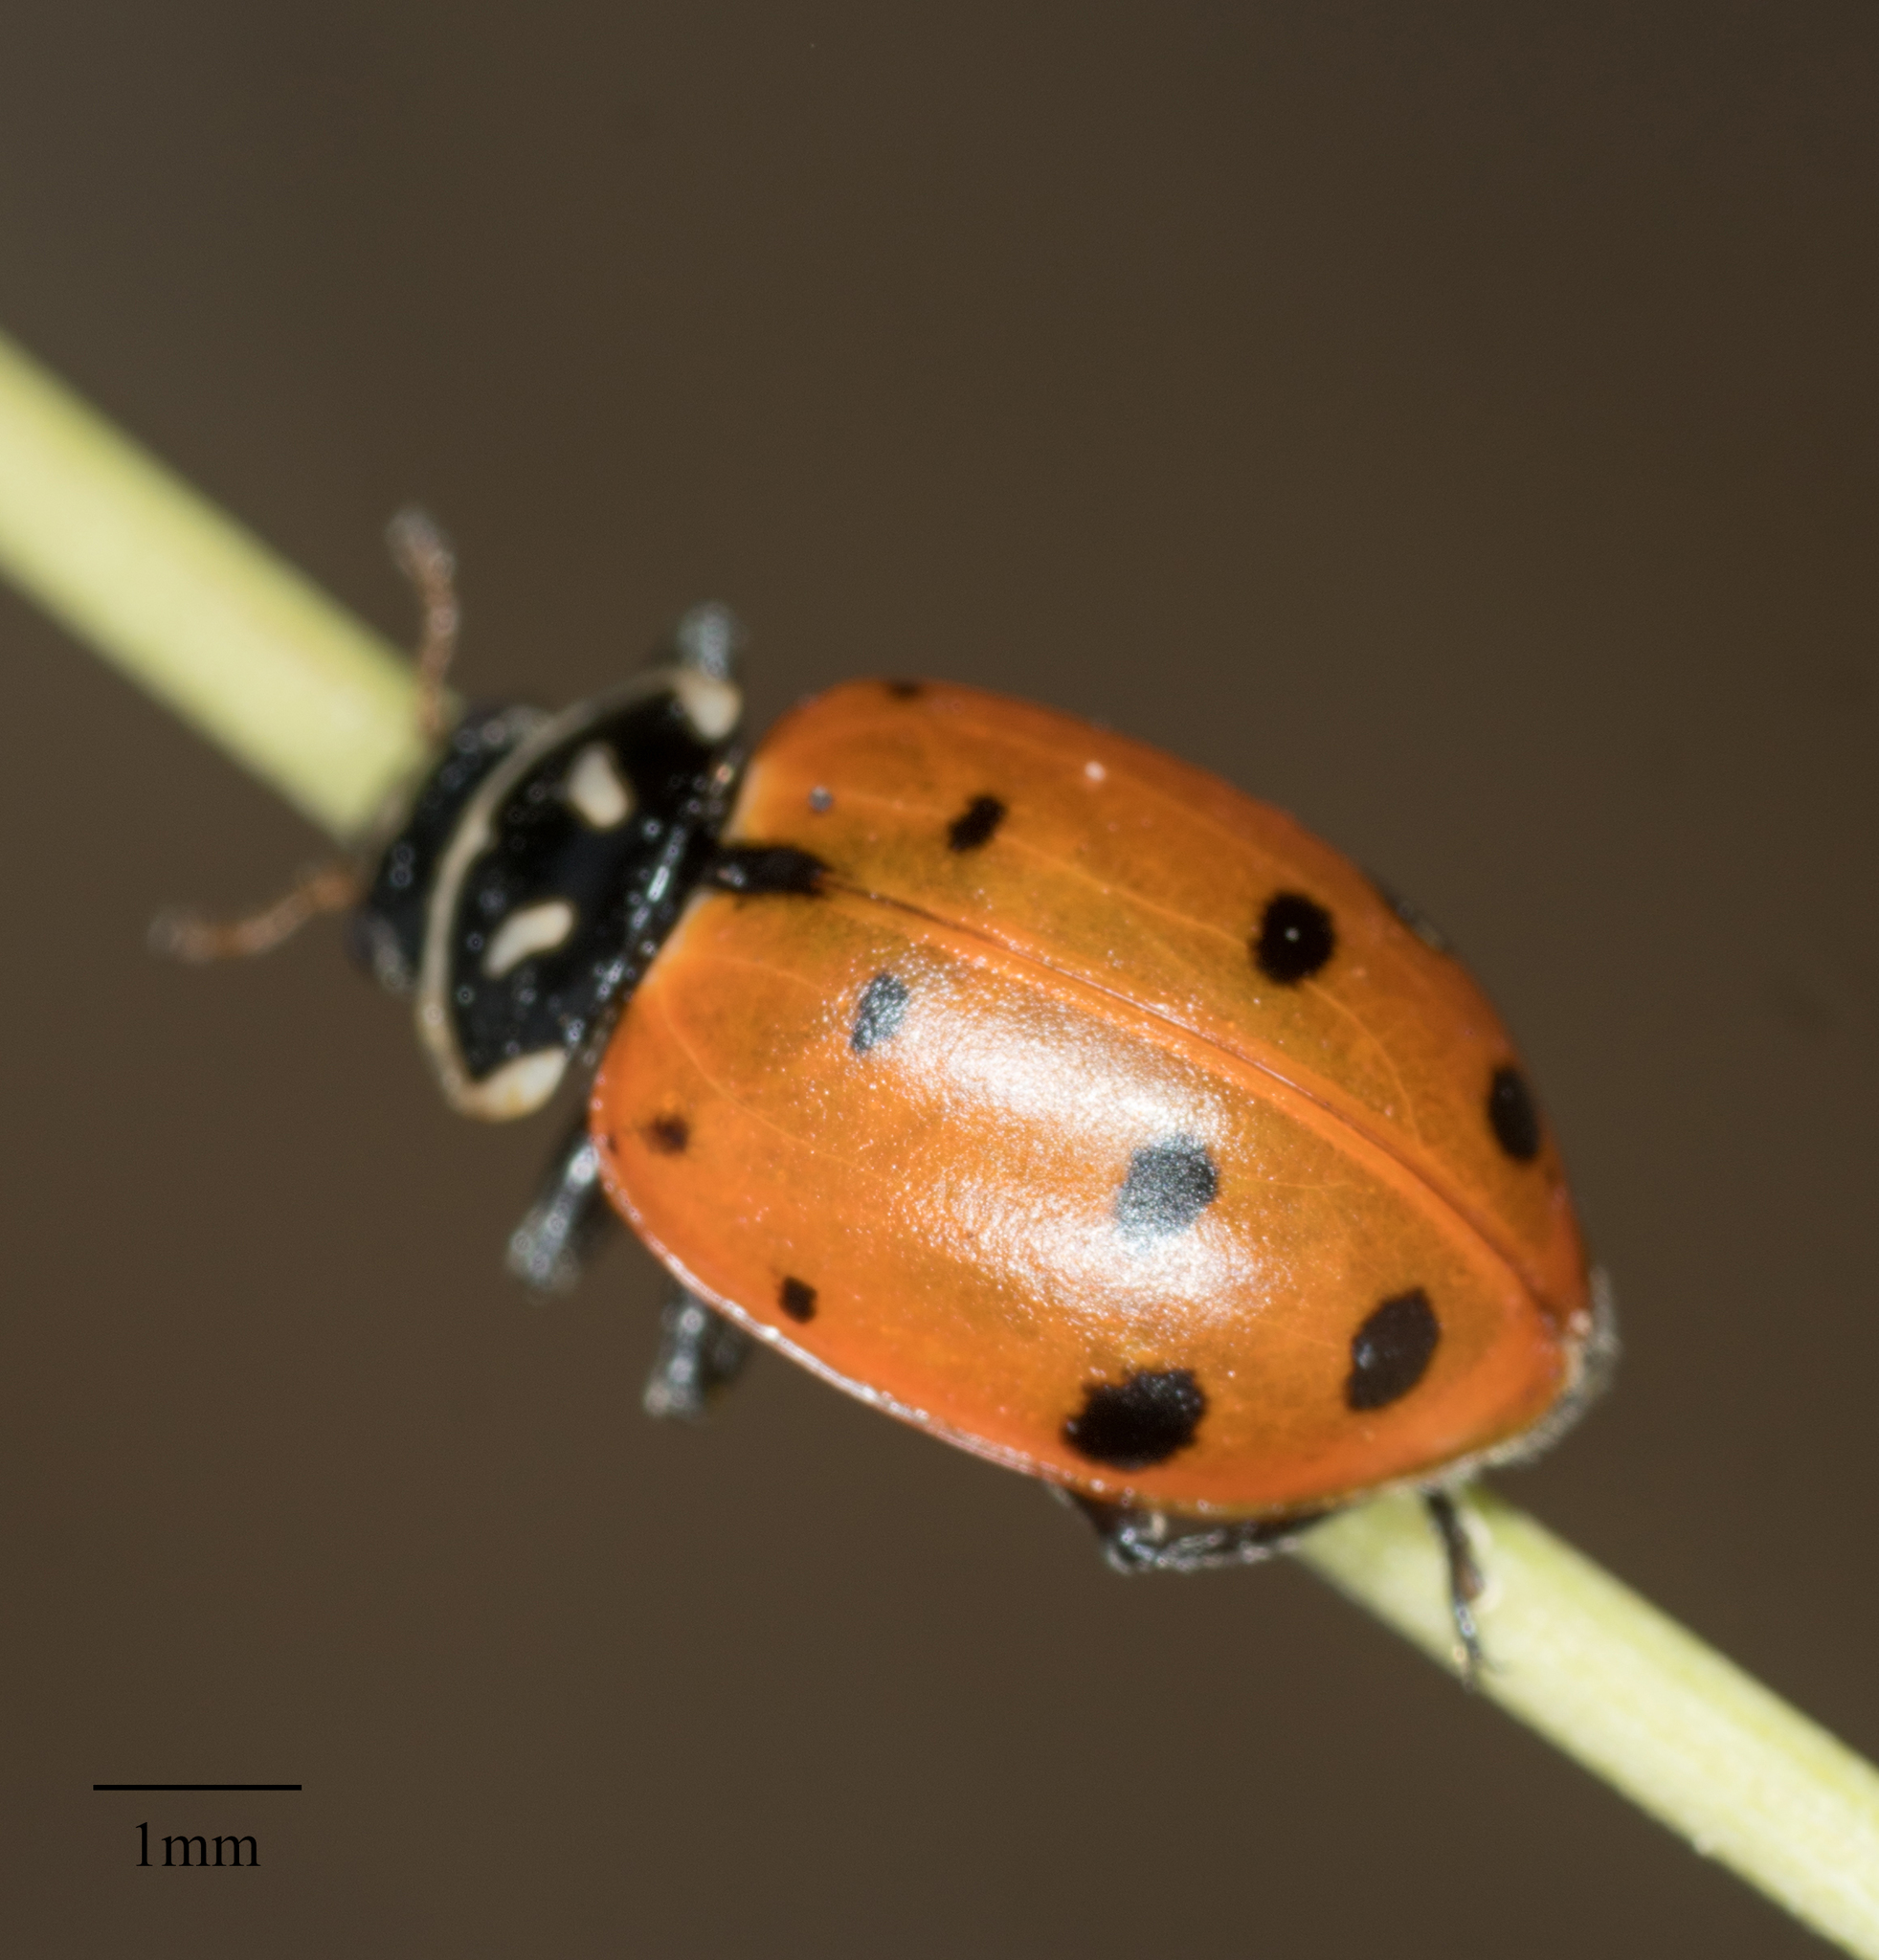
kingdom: Animalia
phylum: Arthropoda
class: Insecta
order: Coleoptera
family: Coccinellidae
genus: Hippodamia
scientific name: Hippodamia convergens
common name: Convergent lady beetle
